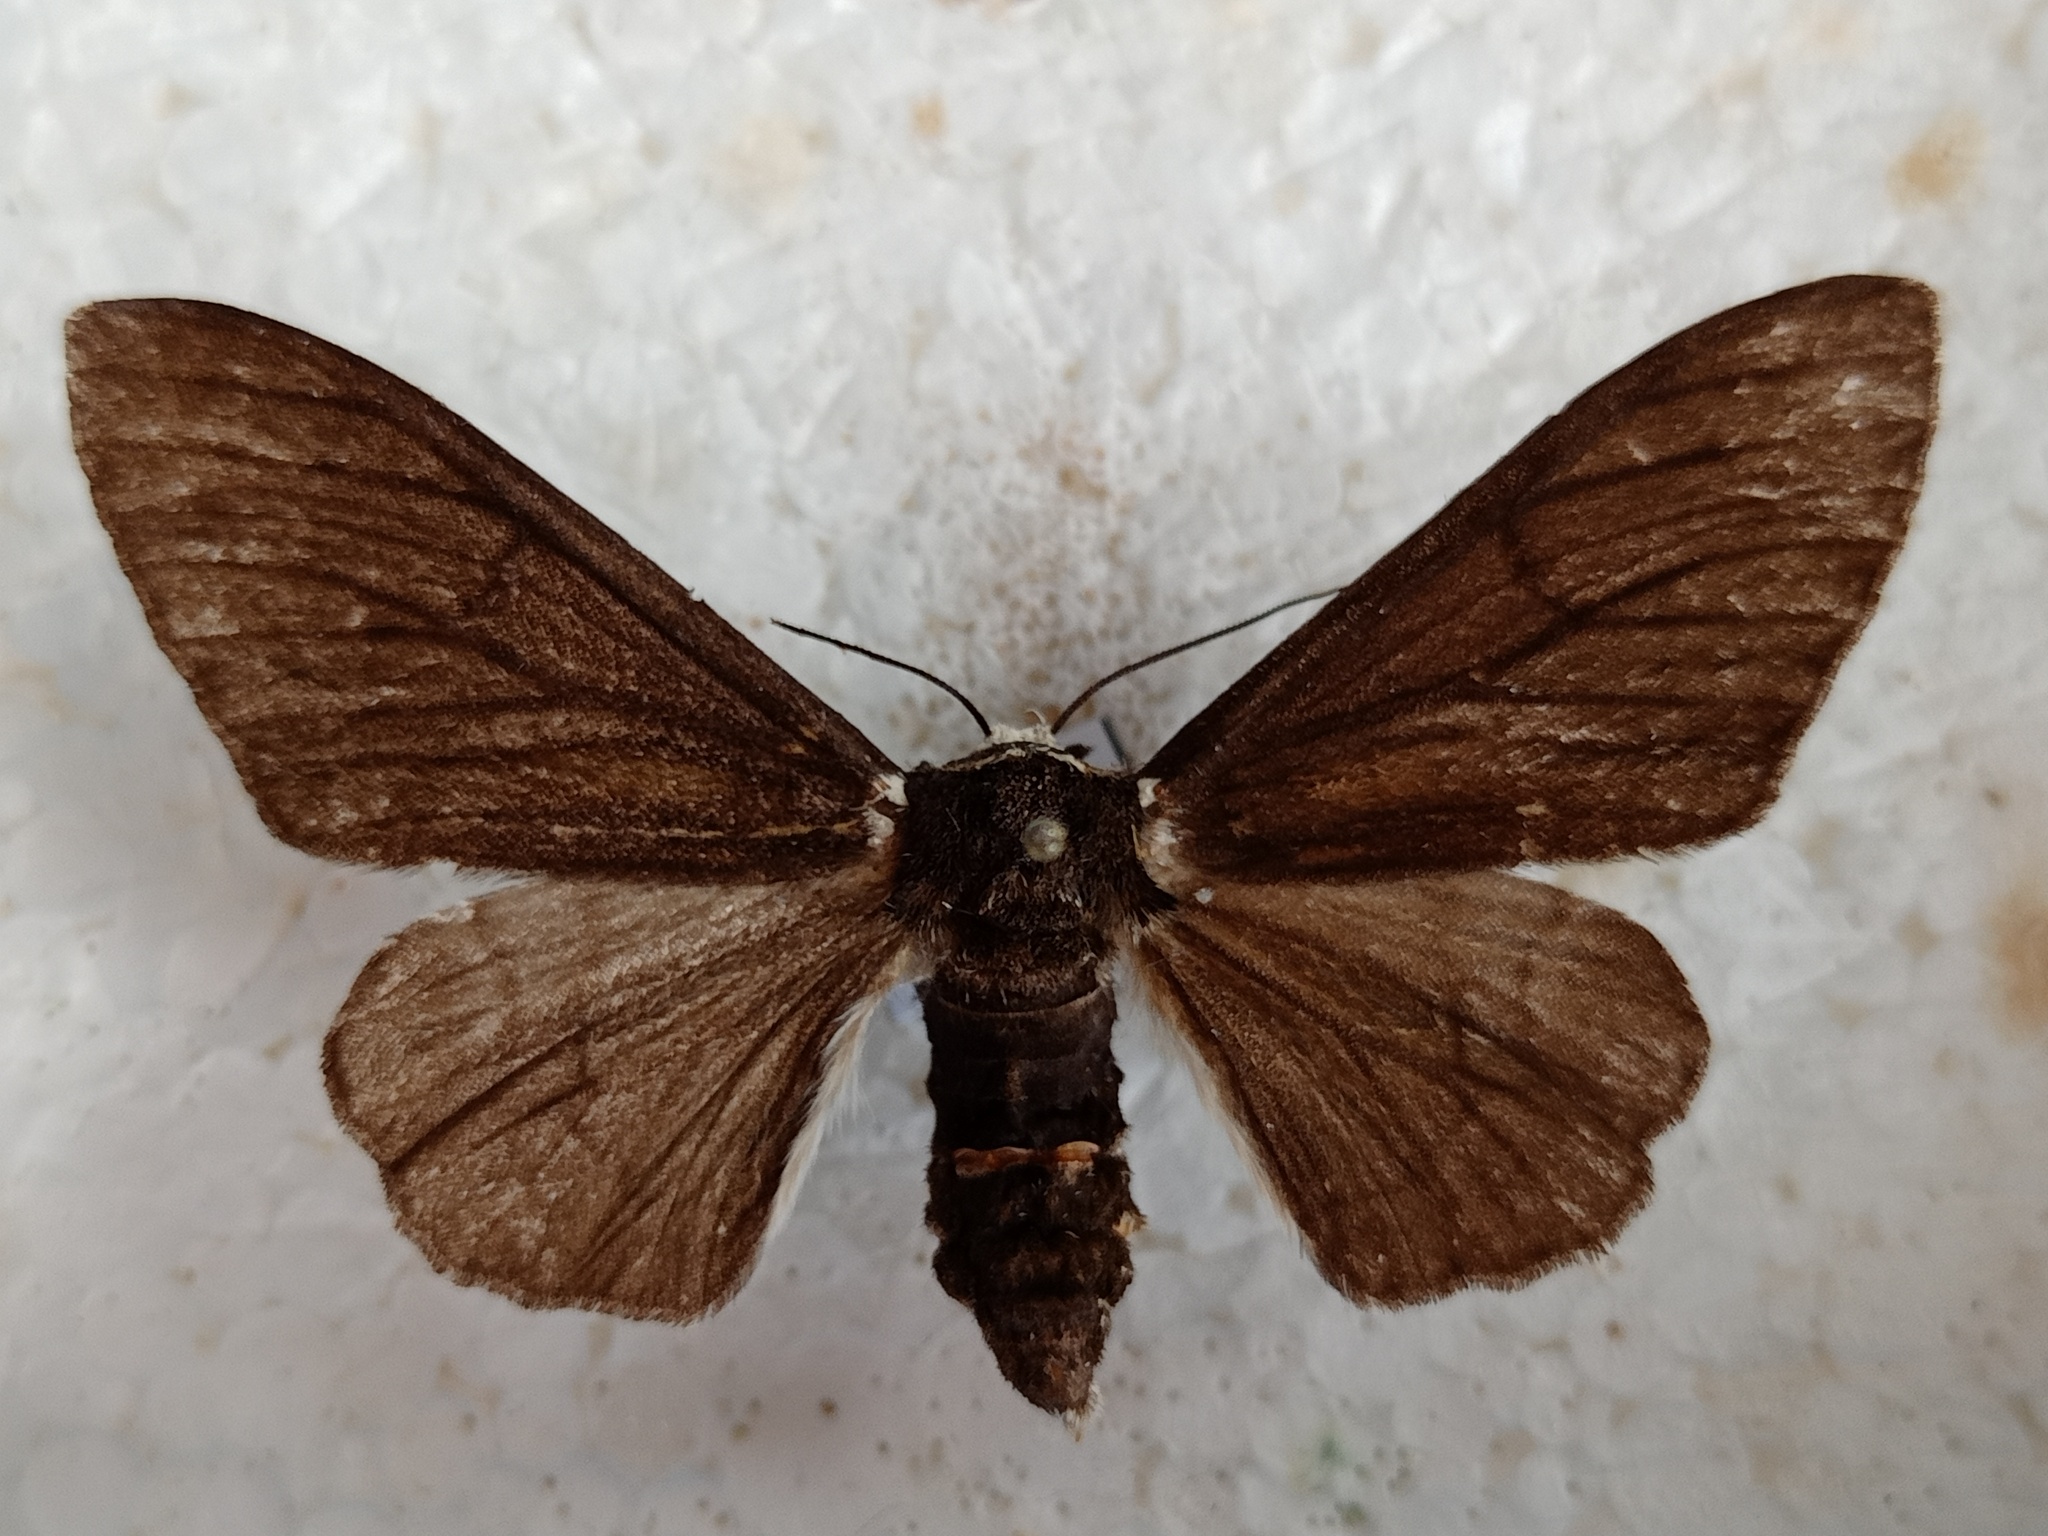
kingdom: Animalia
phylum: Arthropoda
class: Insecta
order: Lepidoptera
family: Geometridae
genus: Biston
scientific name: Biston betularia
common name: Peppered moth
